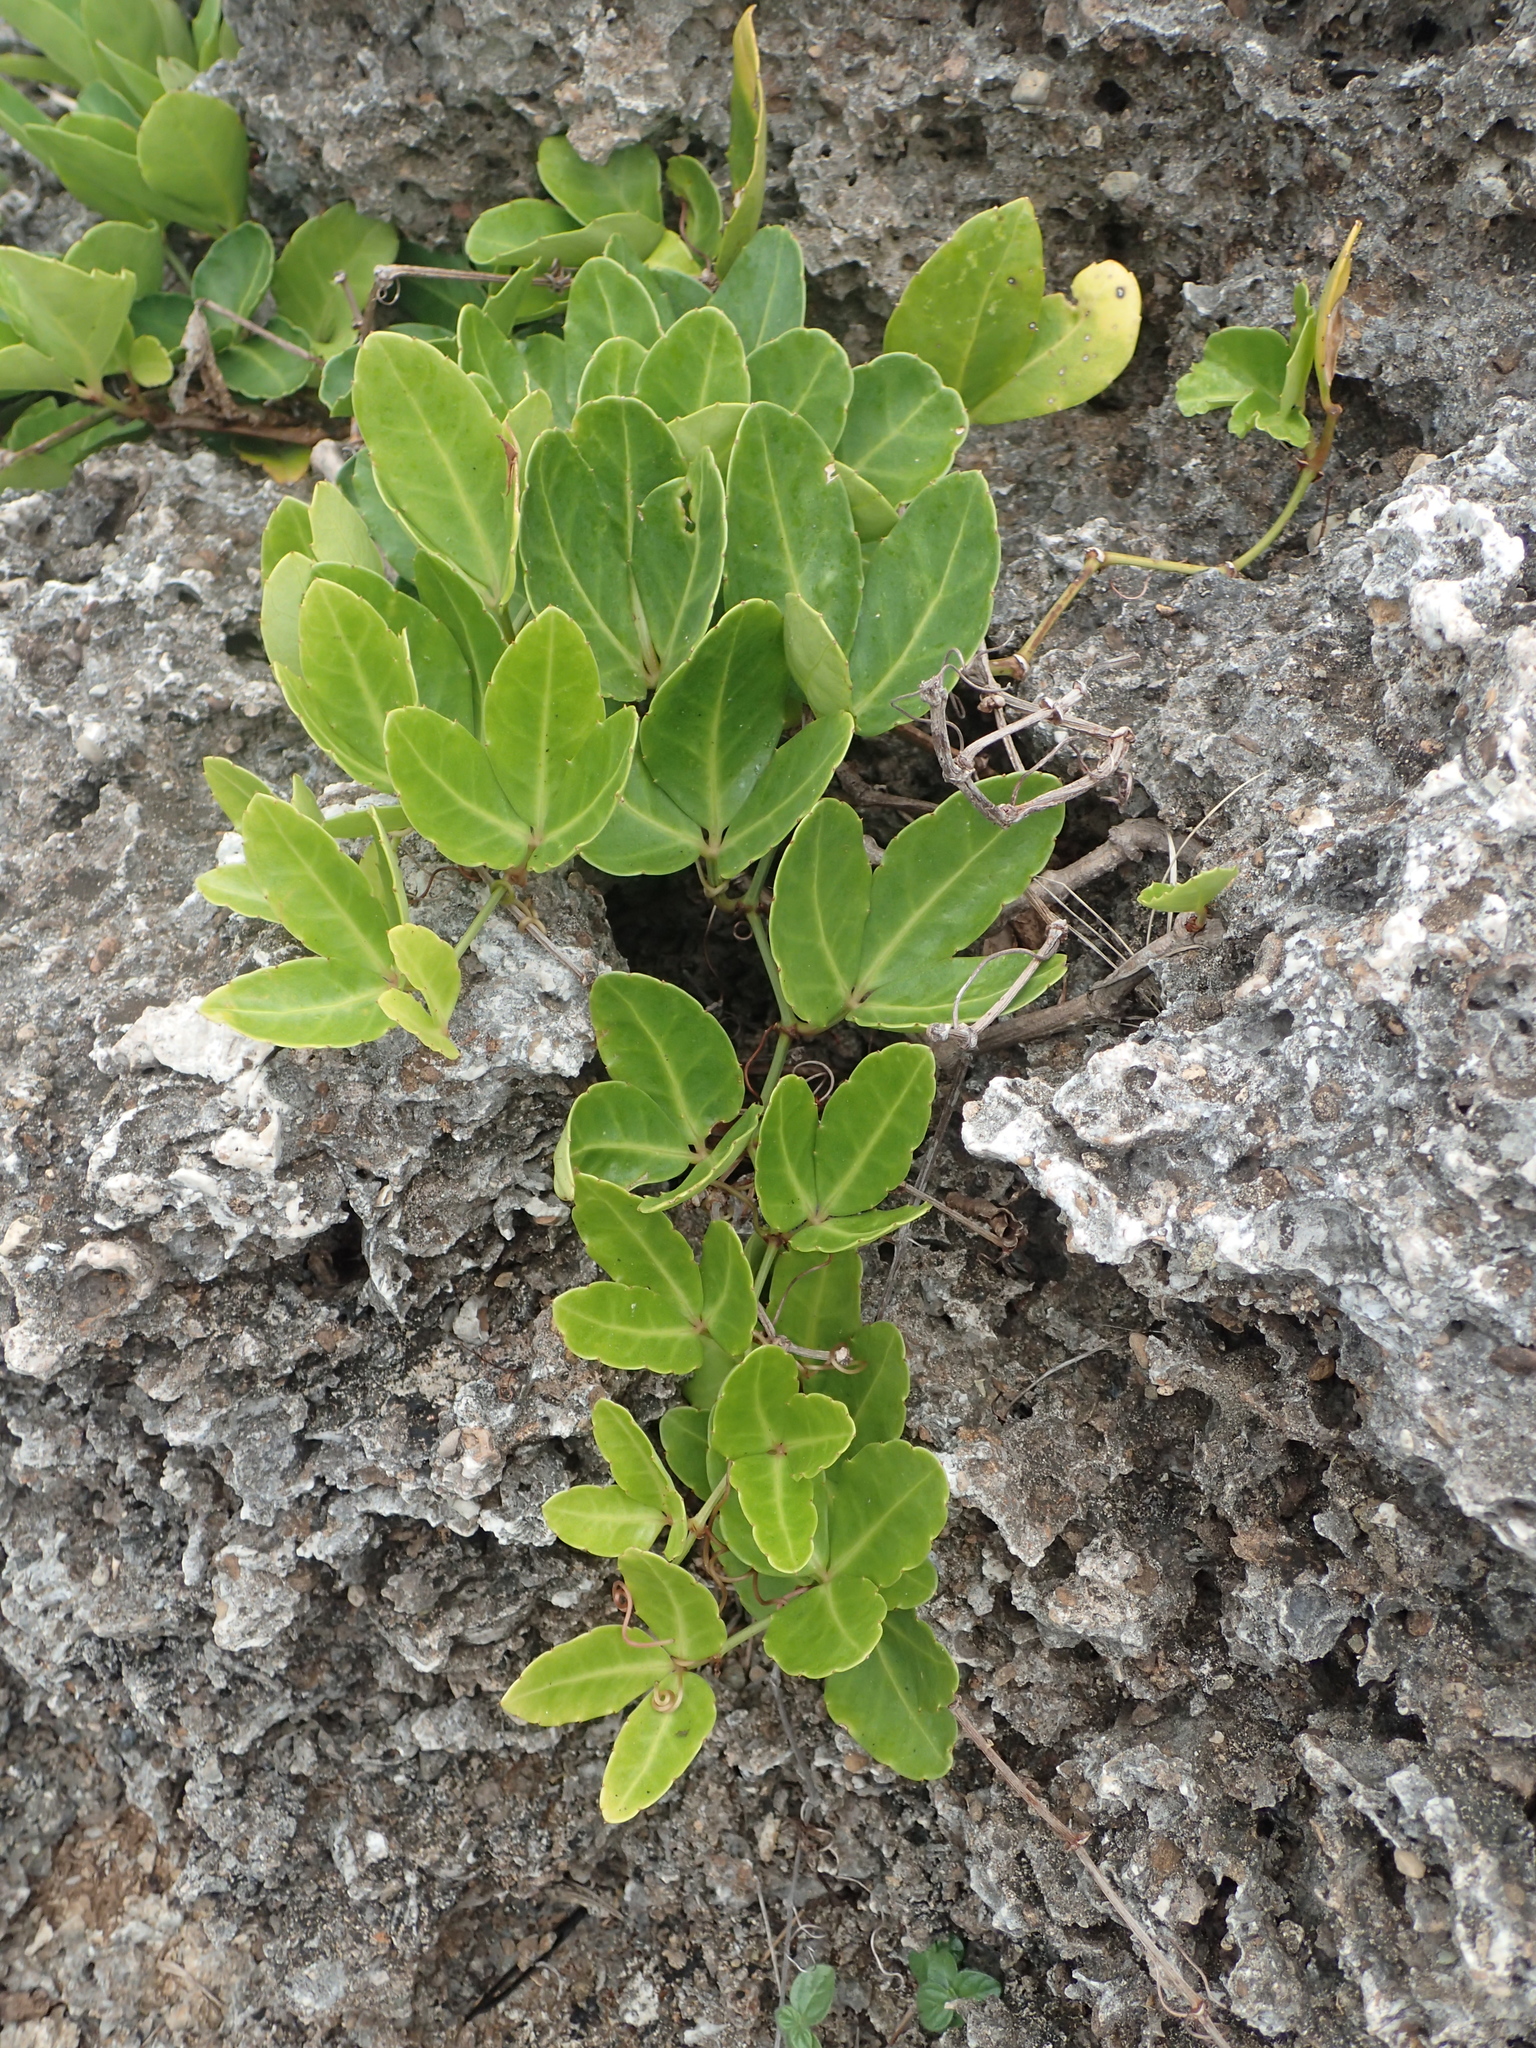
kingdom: Plantae
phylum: Tracheophyta
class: Magnoliopsida
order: Vitales
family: Vitaceae
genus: Tetrastigma
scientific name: Tetrastigma formosanum
